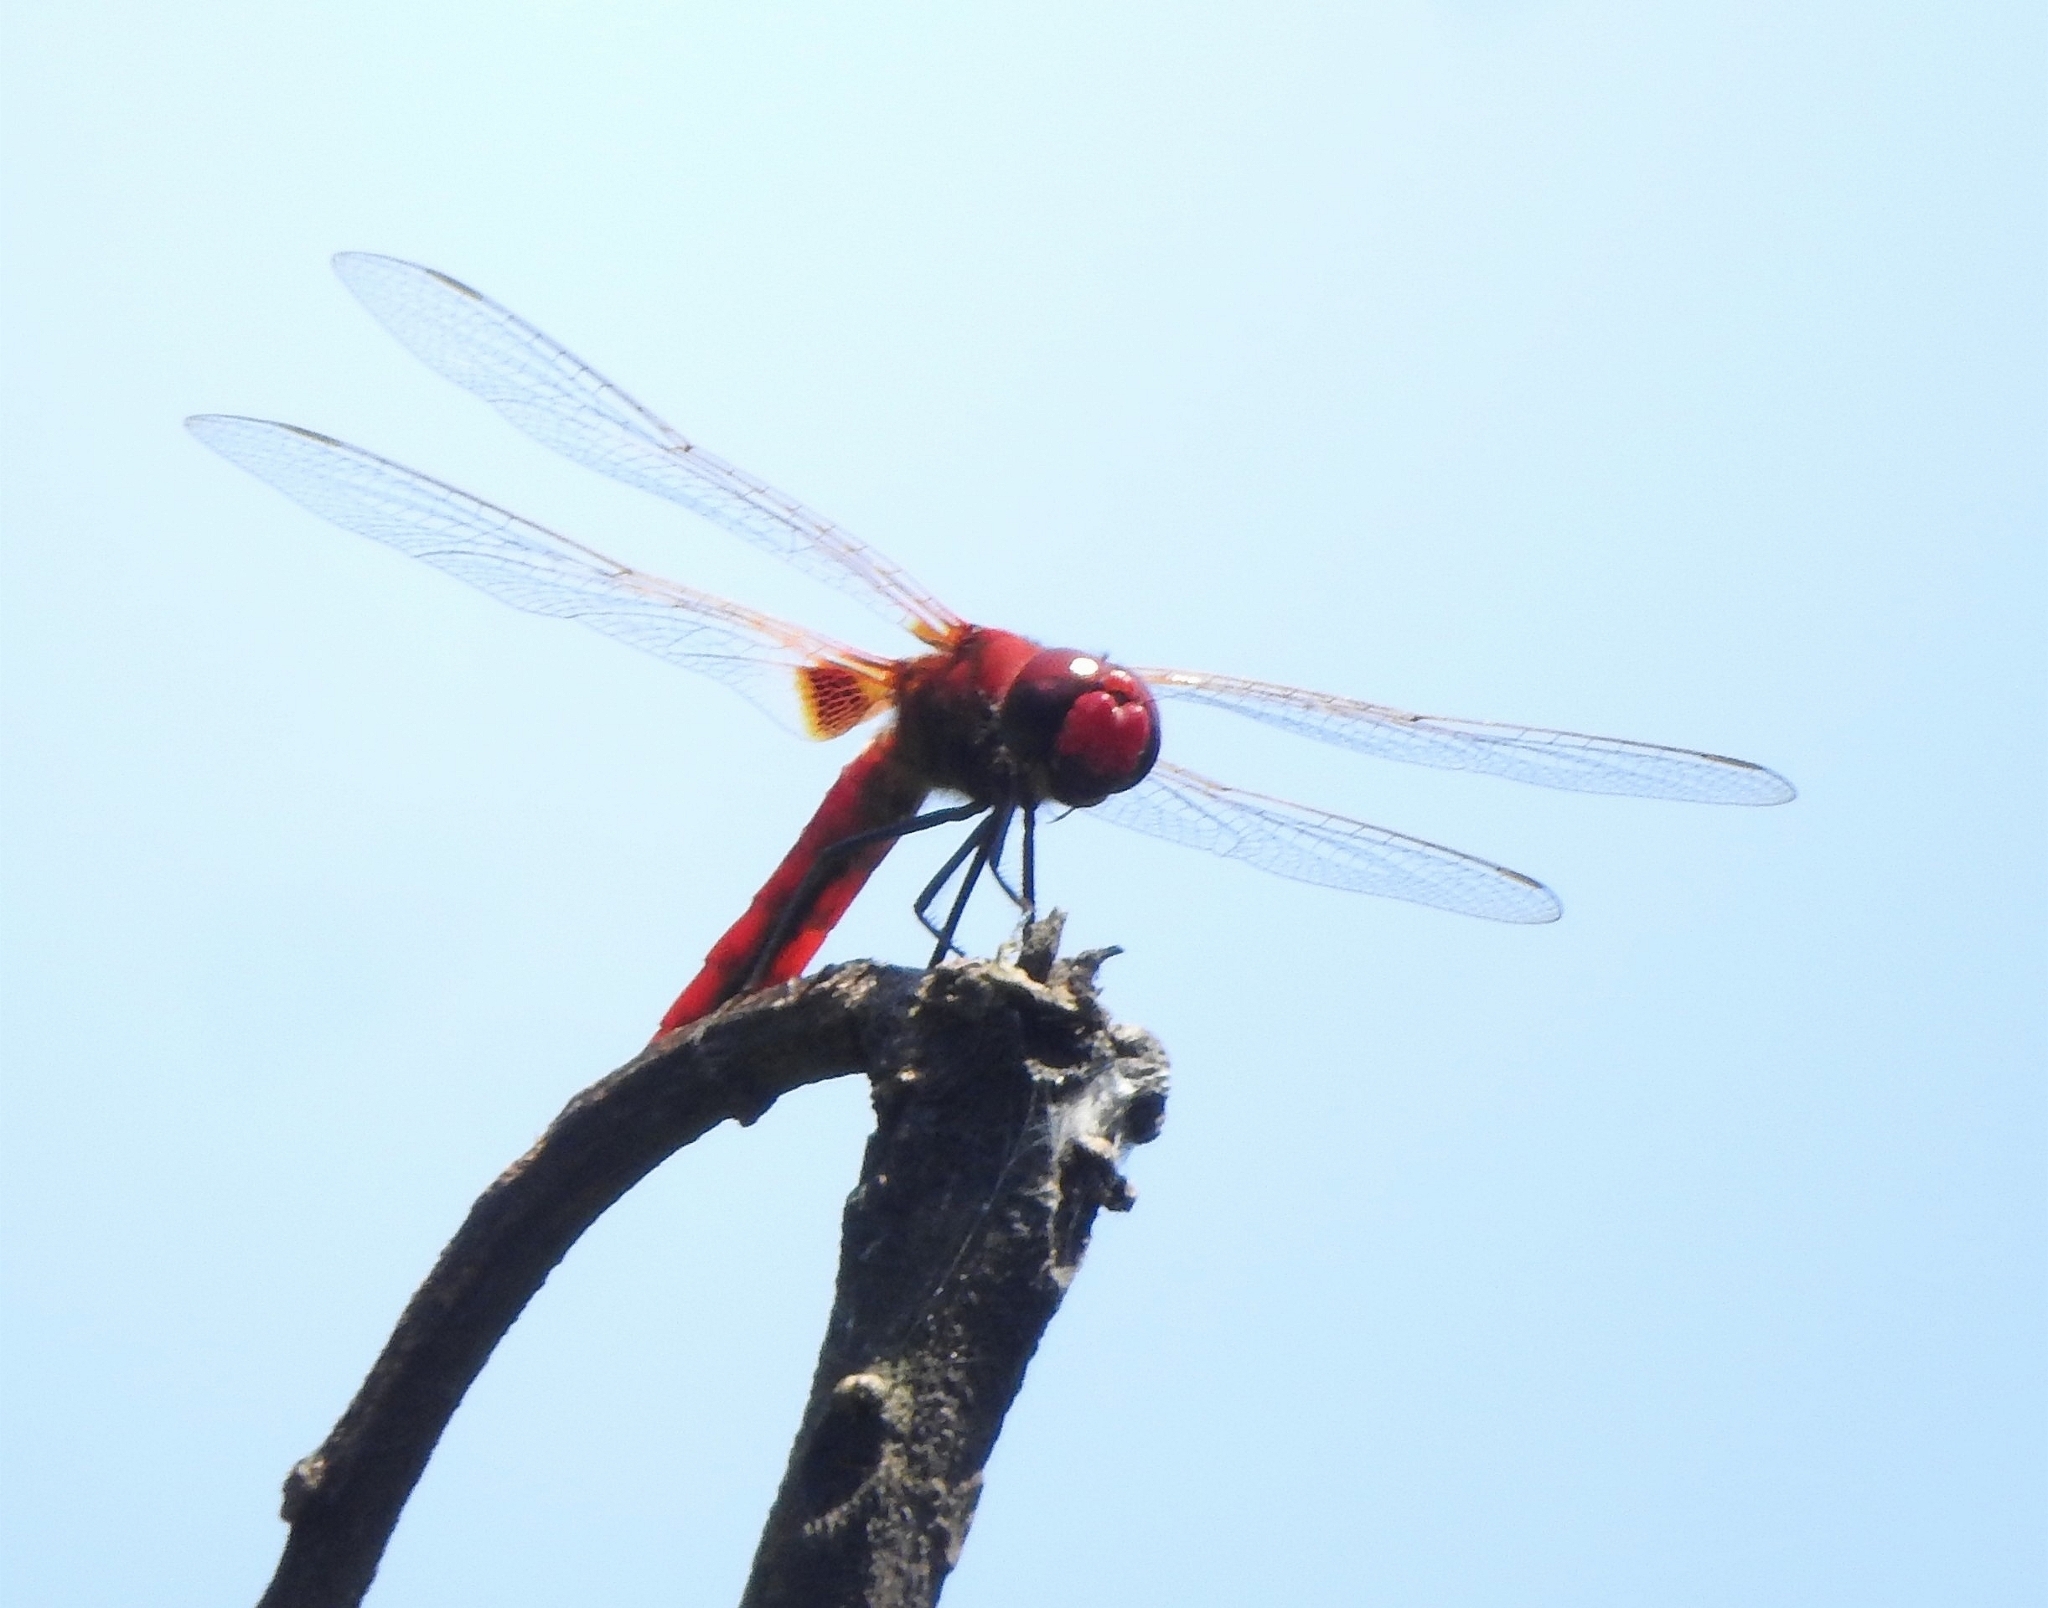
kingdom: Animalia
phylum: Arthropoda
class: Insecta
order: Odonata
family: Libellulidae
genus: Urothemis
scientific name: Urothemis signata
